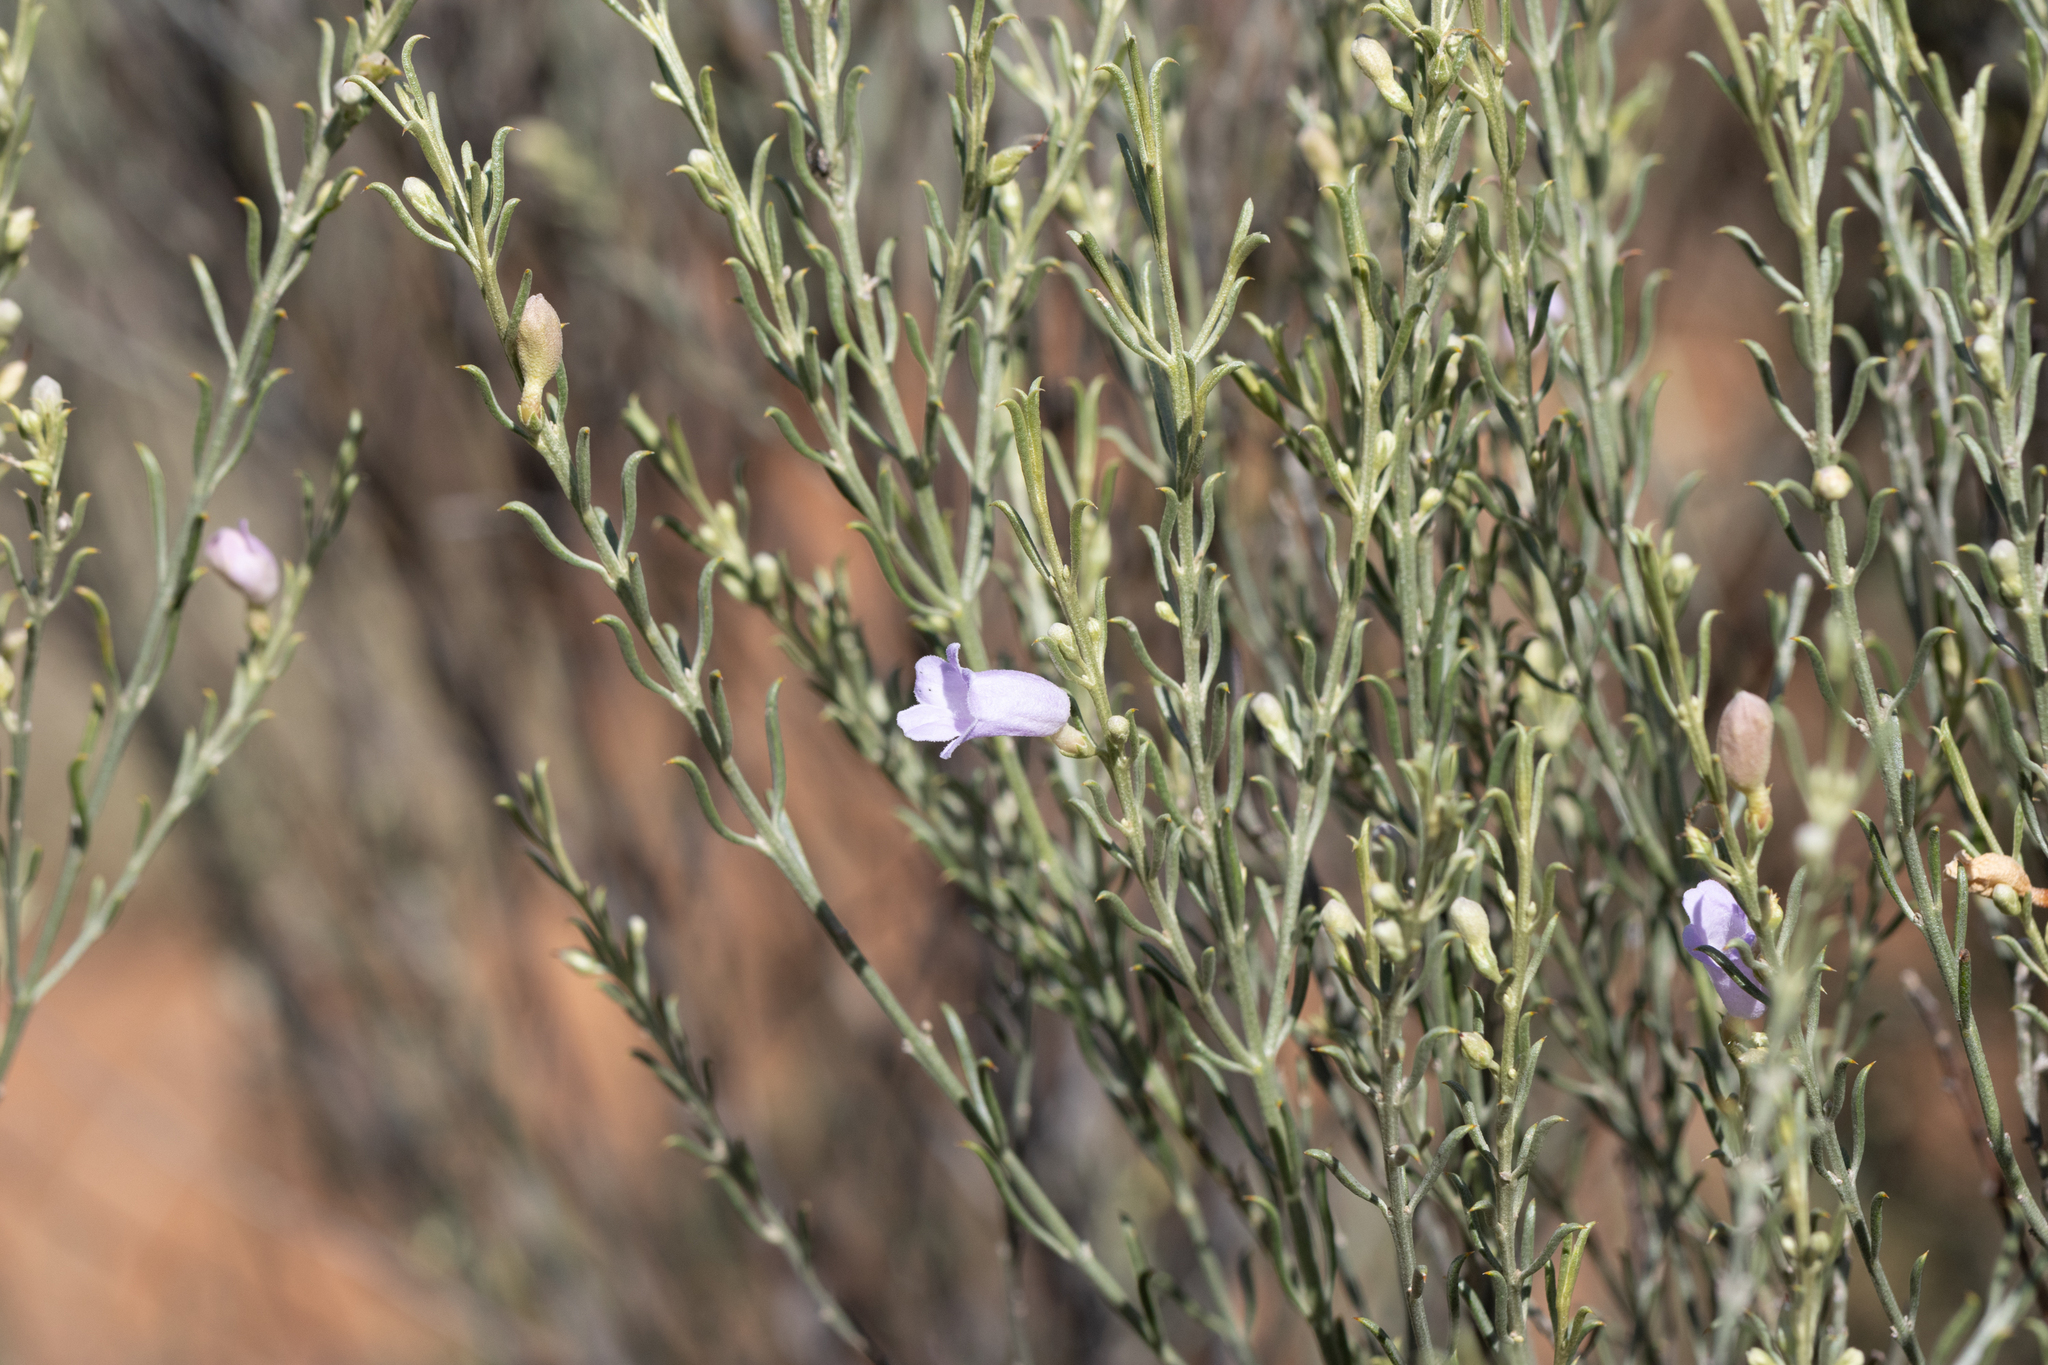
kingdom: Plantae
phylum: Tracheophyta
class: Magnoliopsida
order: Lamiales
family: Scrophulariaceae
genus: Eremophila
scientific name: Eremophila scoparia
